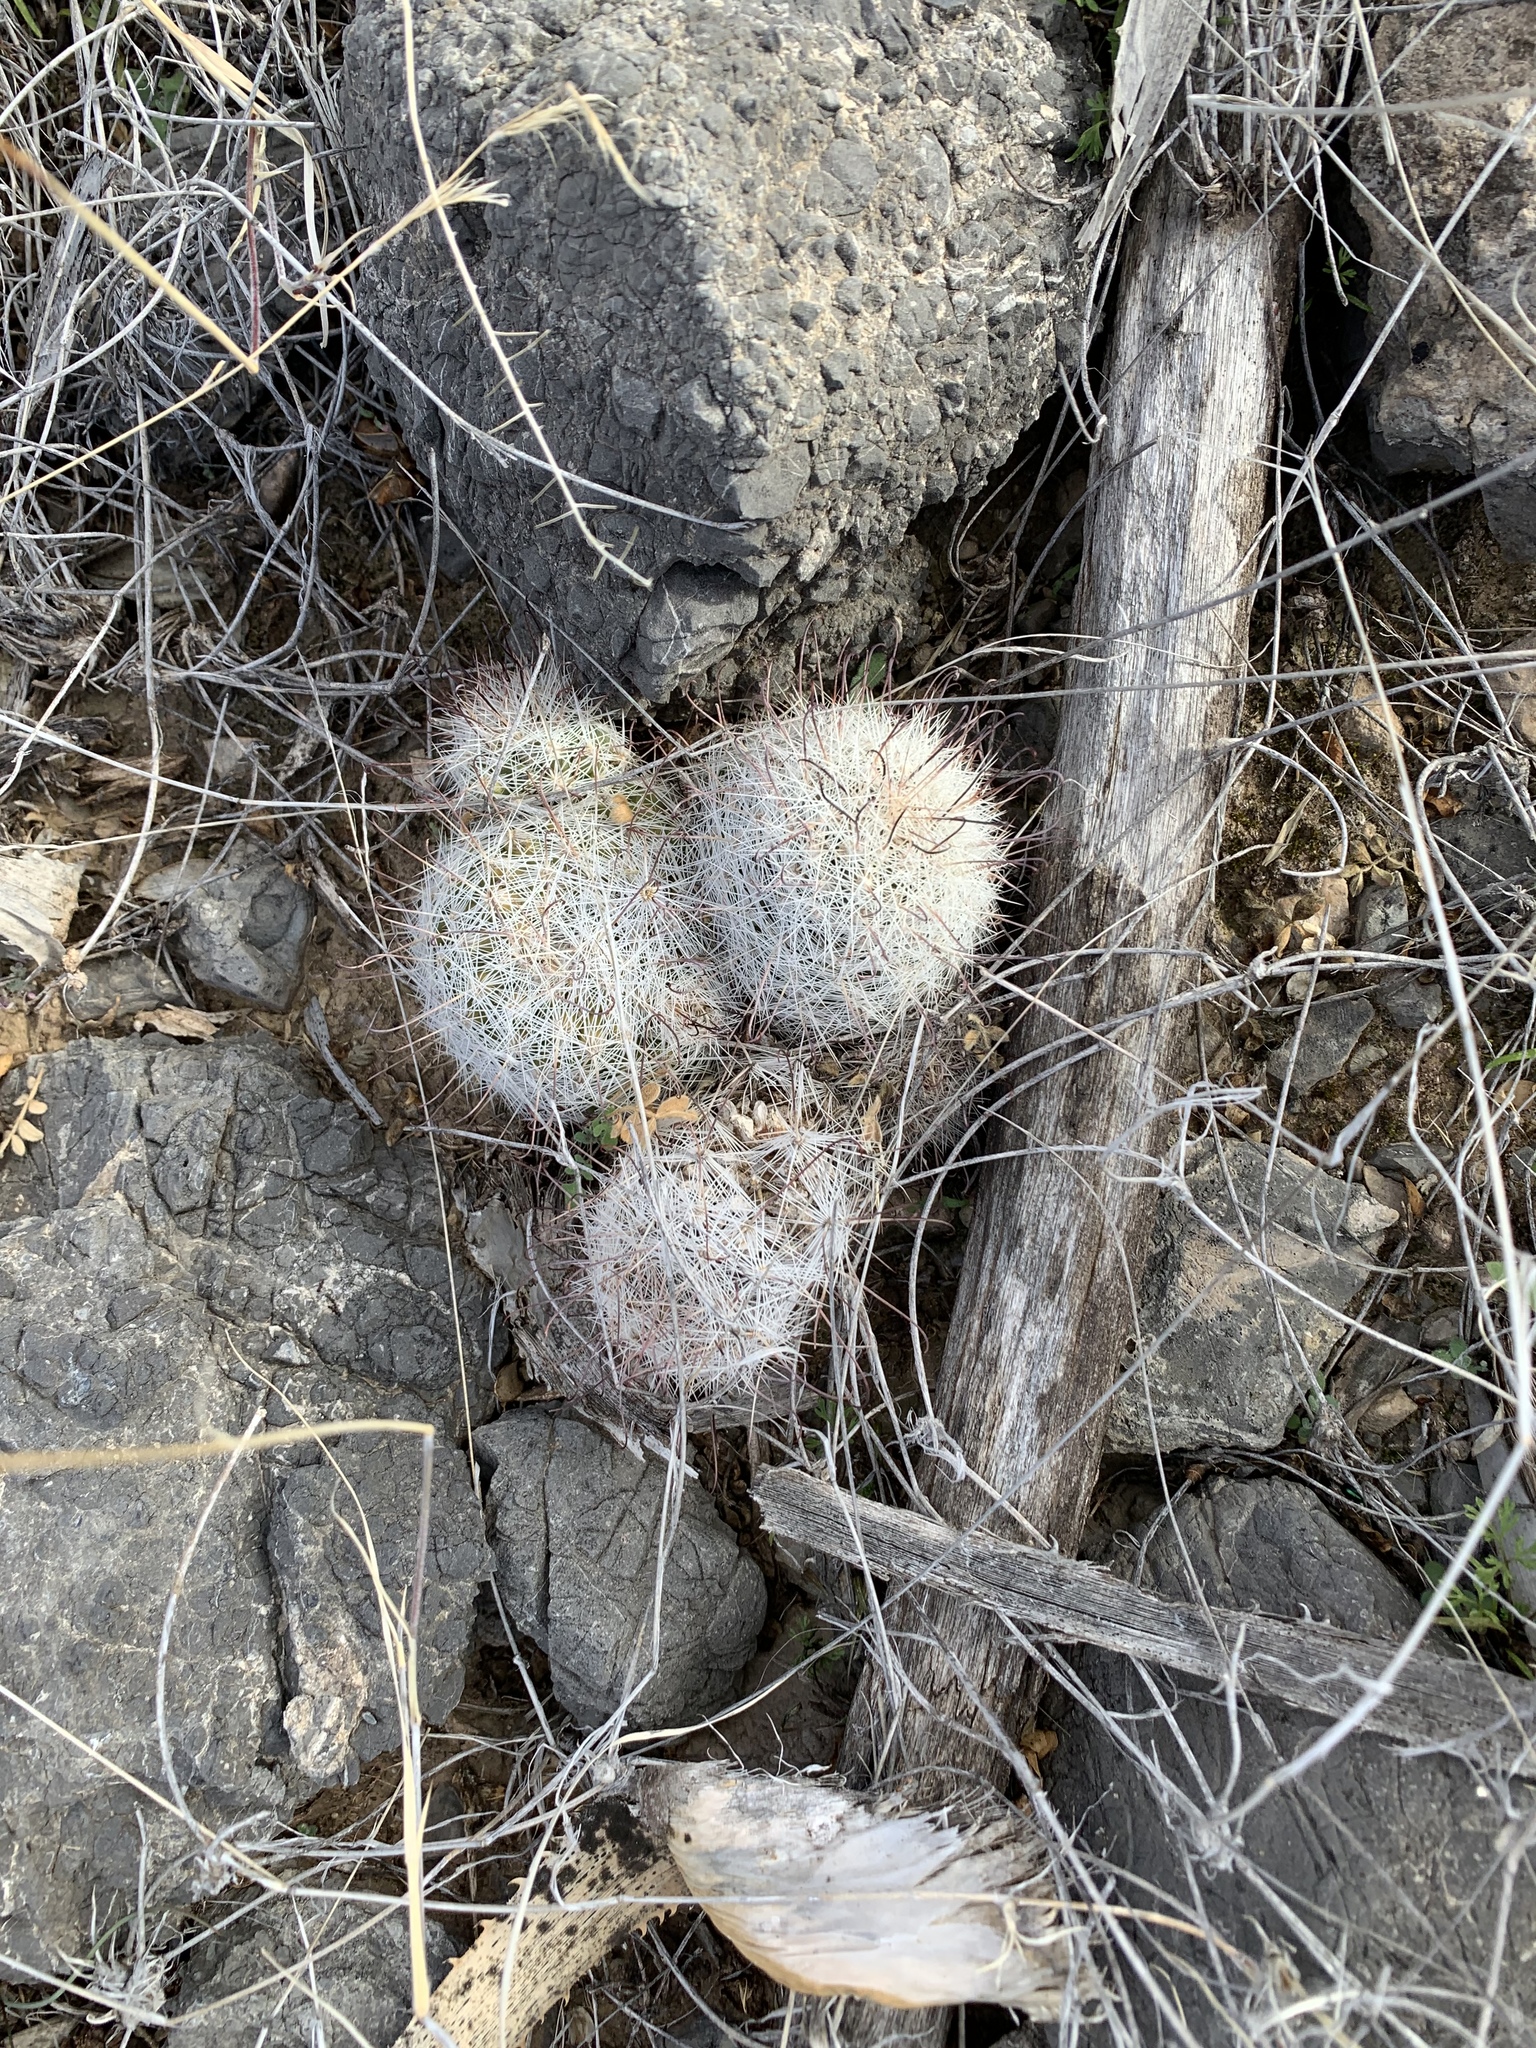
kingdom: Plantae
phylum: Tracheophyta
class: Magnoliopsida
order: Caryophyllales
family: Cactaceae
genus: Cochemiea
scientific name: Cochemiea grahamii
